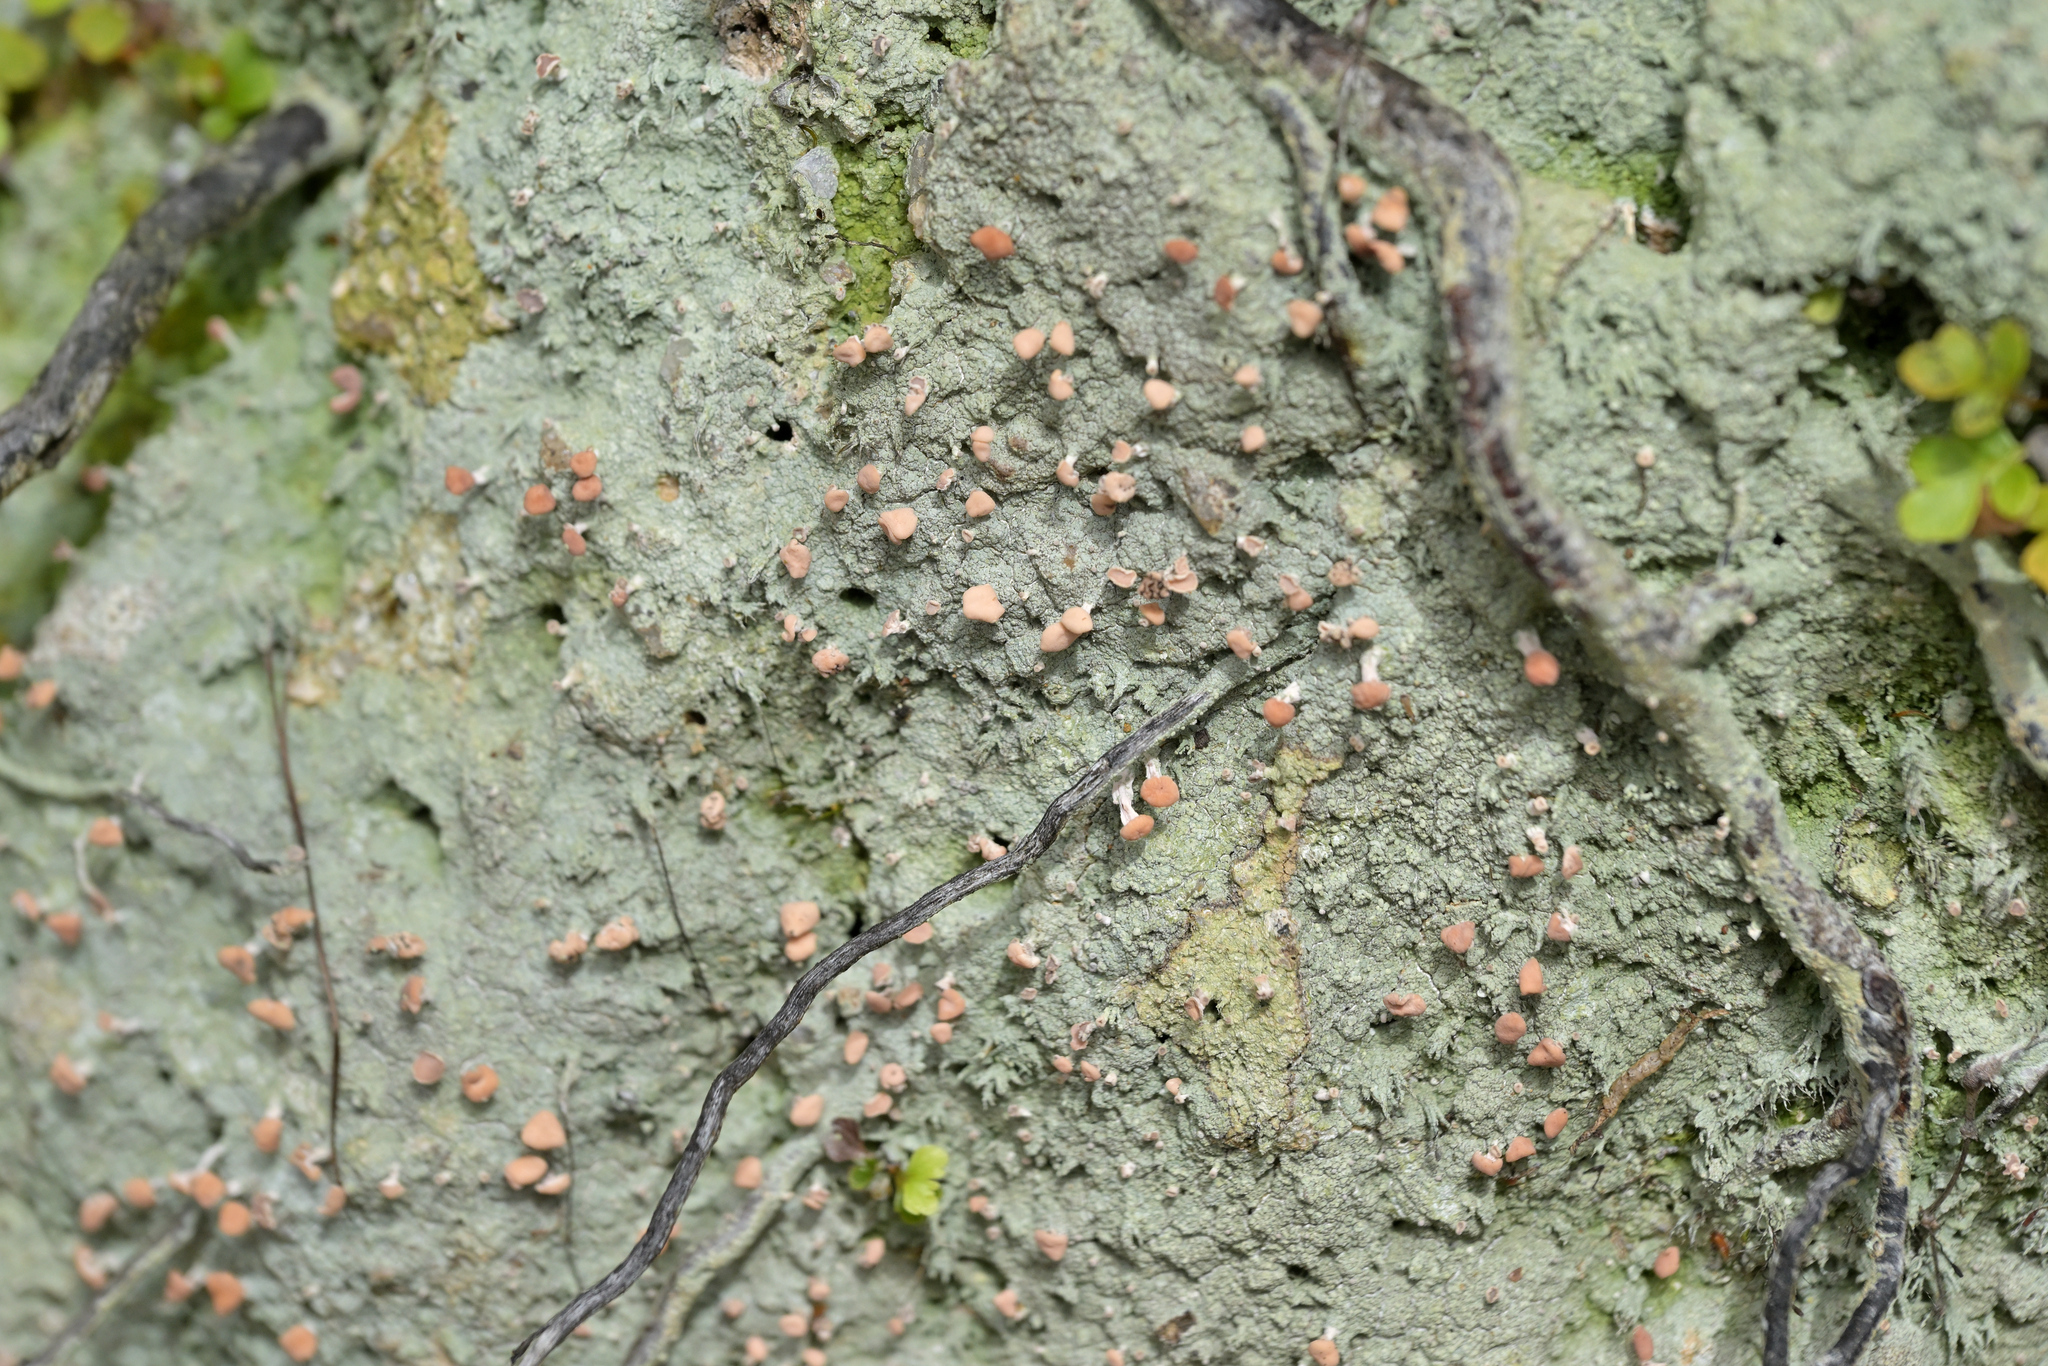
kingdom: Fungi
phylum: Ascomycota
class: Lecanoromycetes
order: Pertusariales
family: Icmadophilaceae
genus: Dibaeis
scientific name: Dibaeis arcuata
